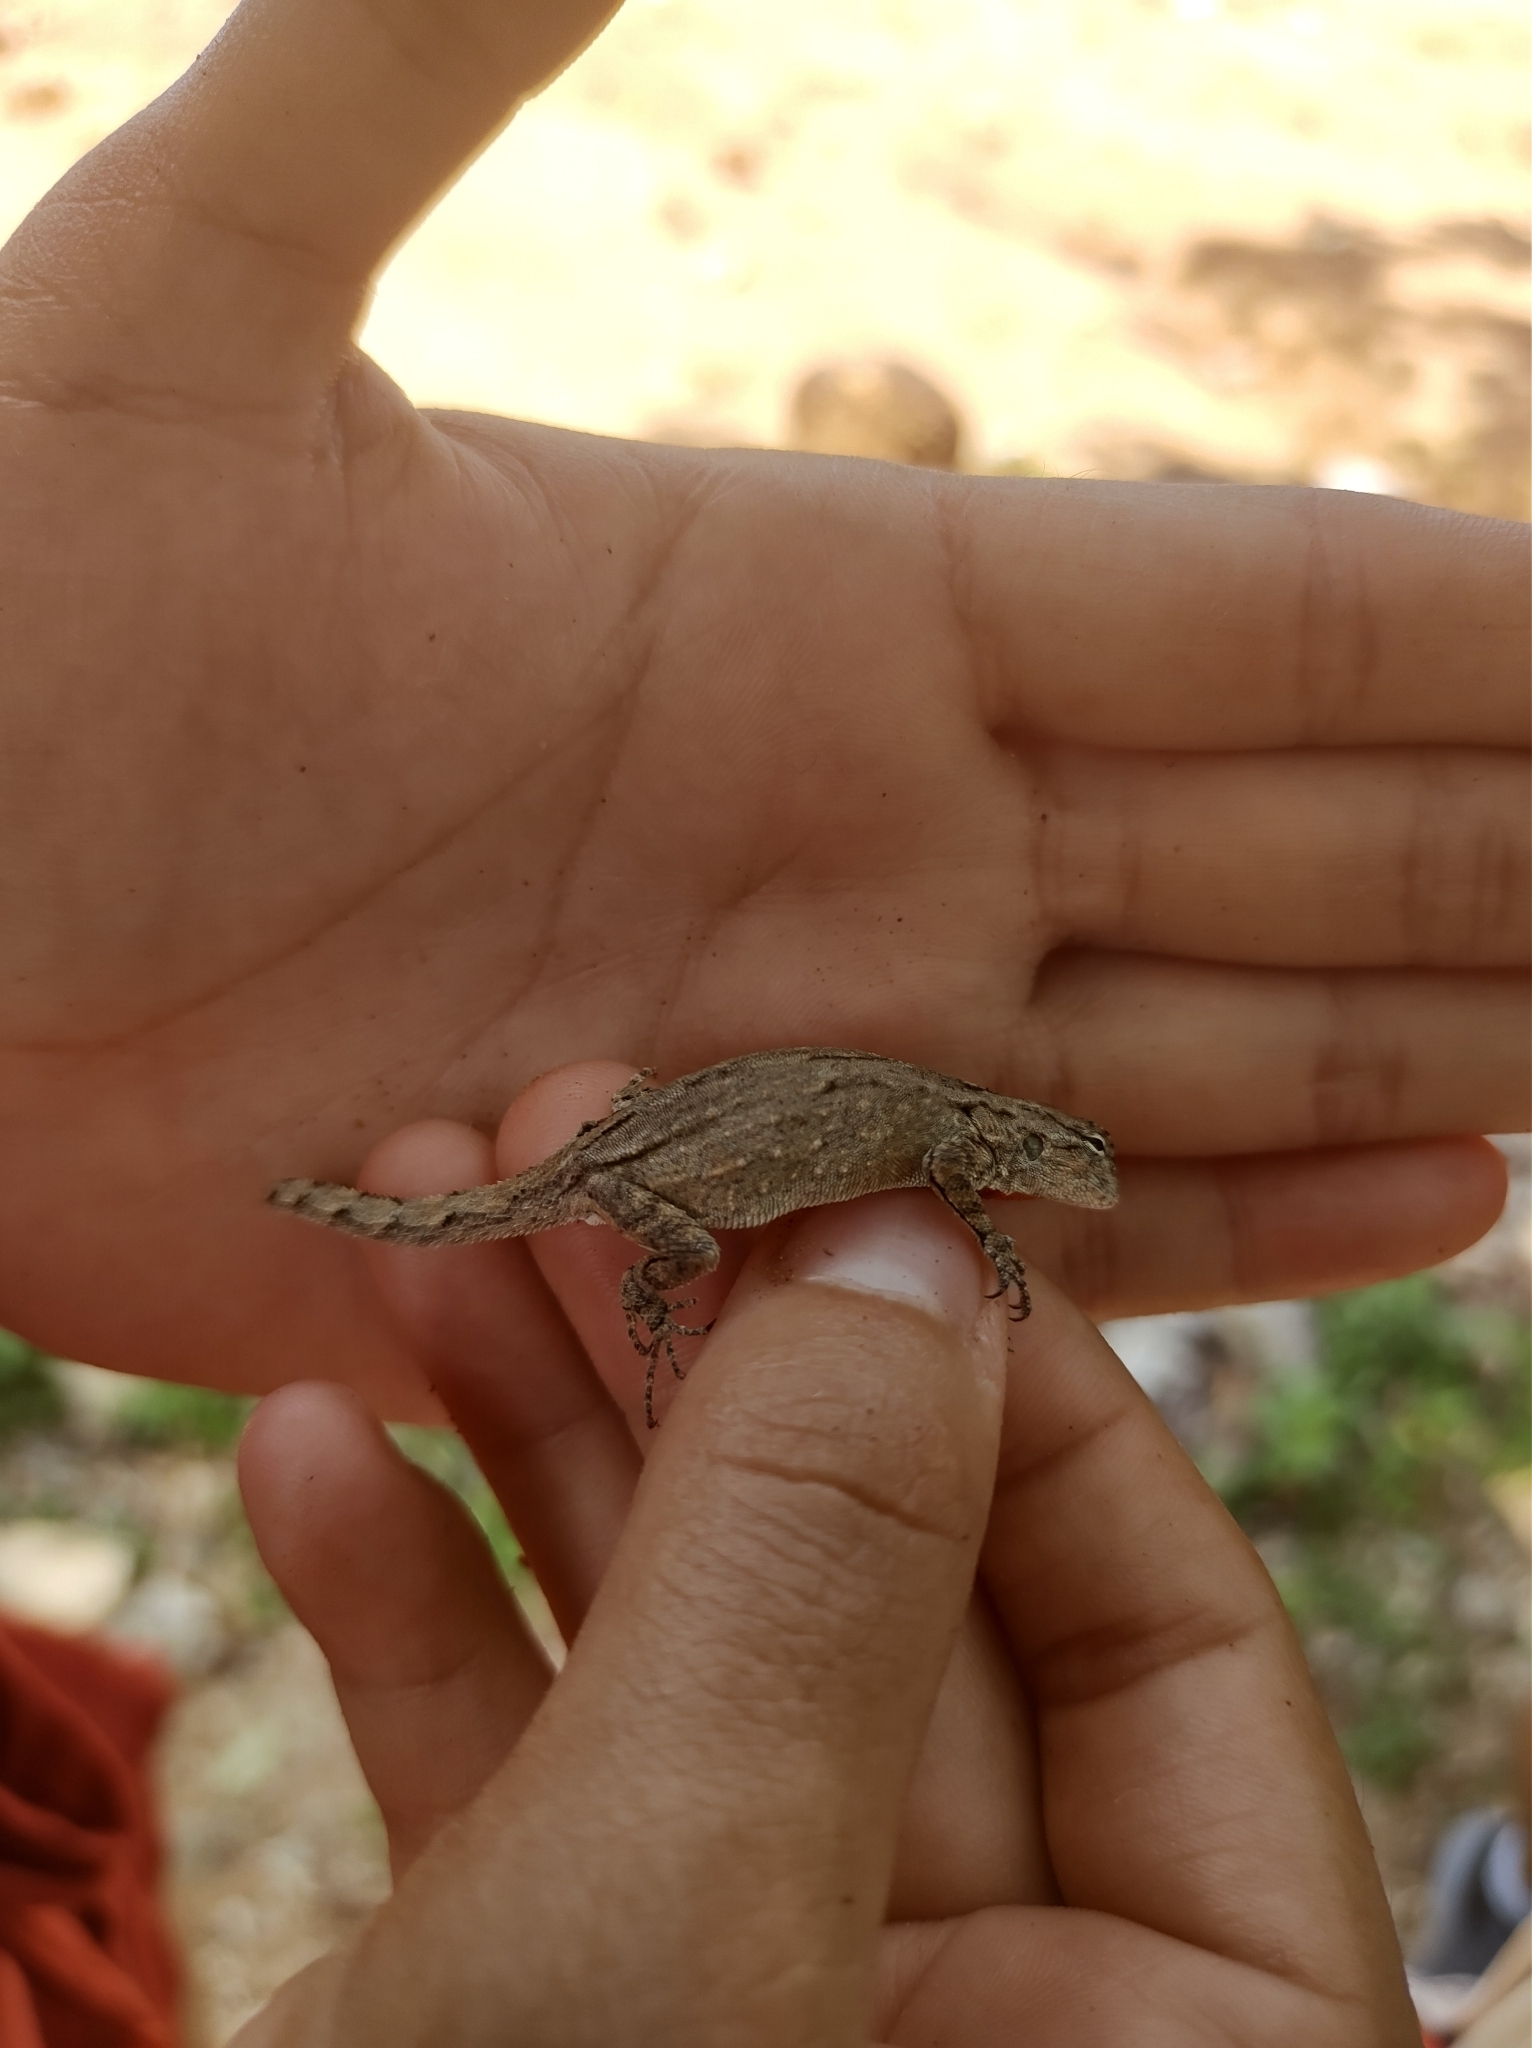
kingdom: Animalia
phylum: Chordata
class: Squamata
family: Phrynosomatidae
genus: Urosaurus
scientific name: Urosaurus bicarinatus
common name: Tropical tree lizard
